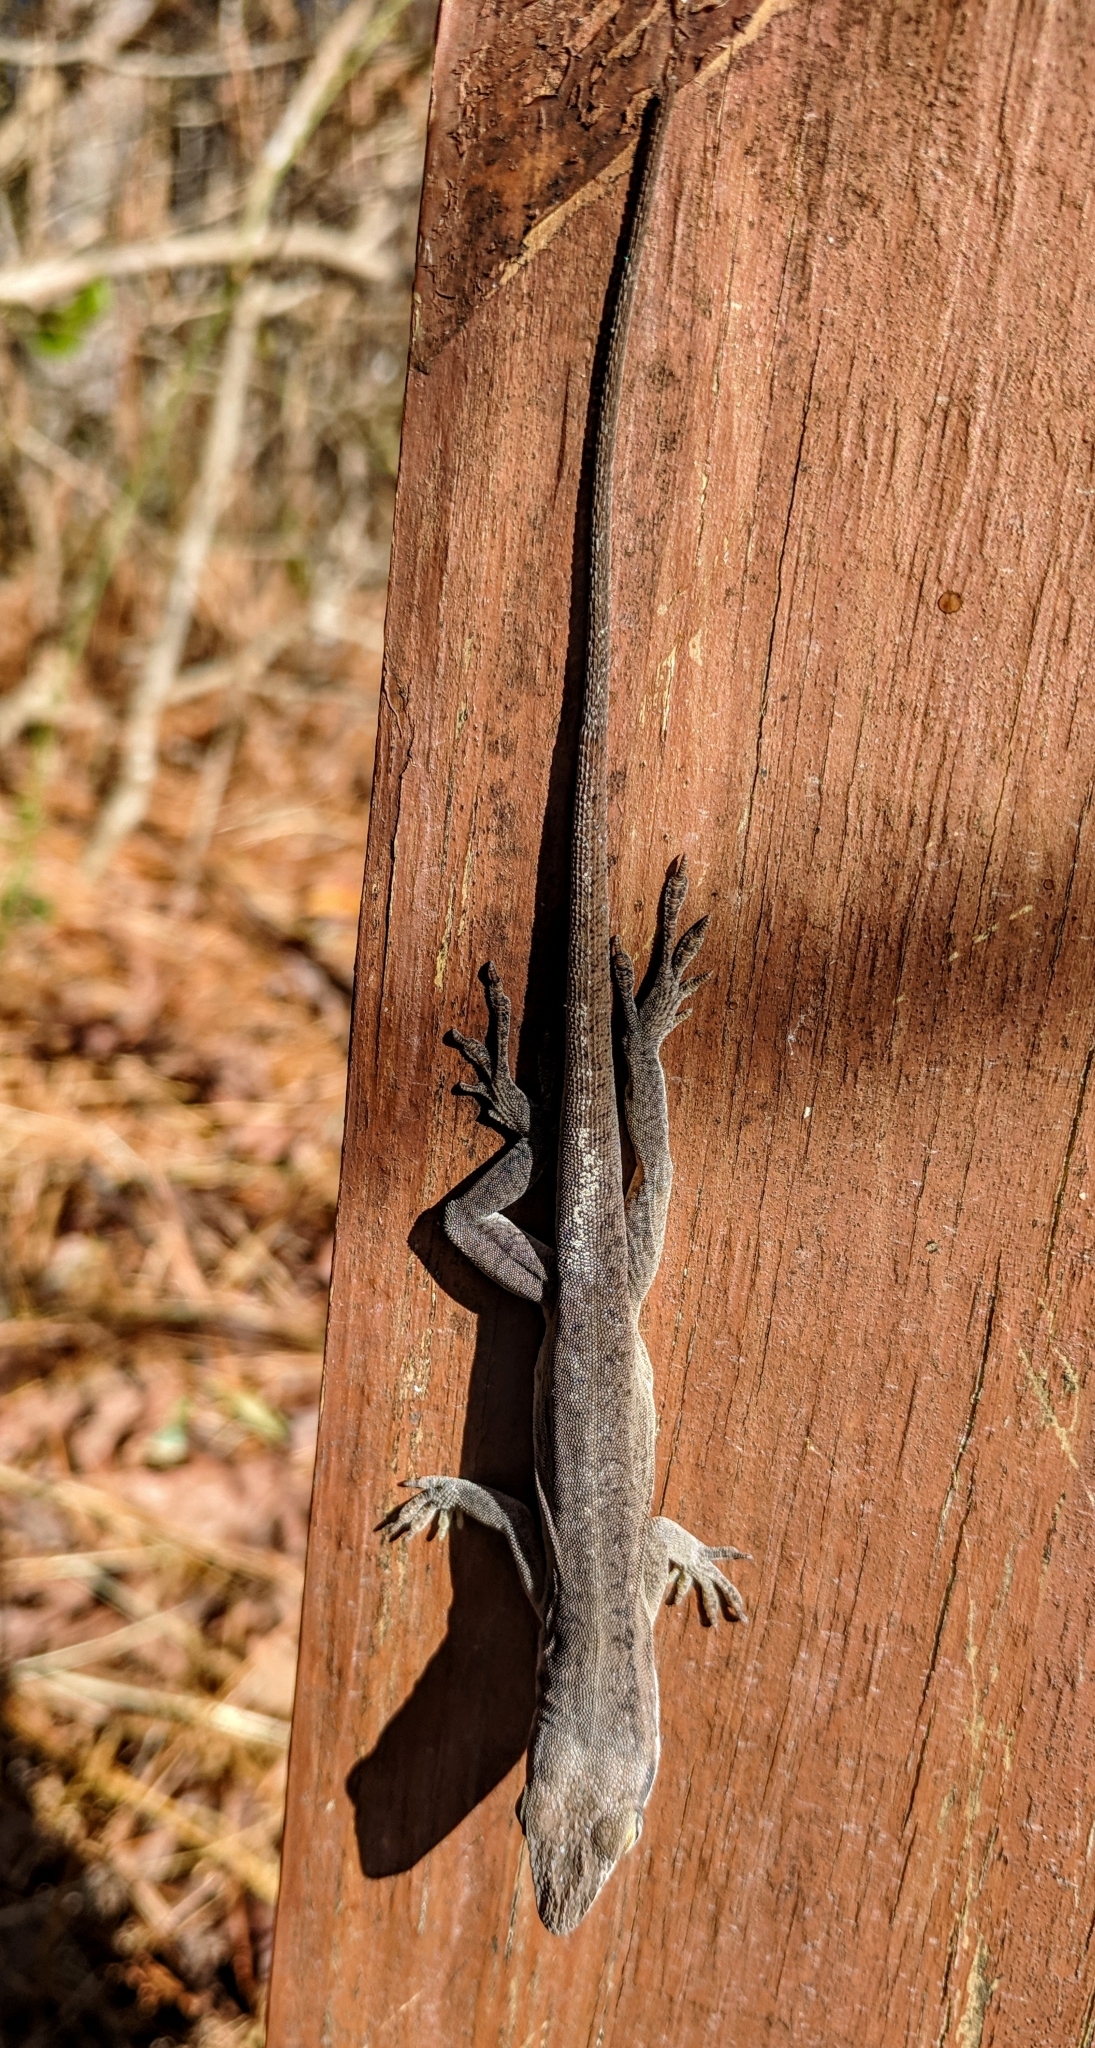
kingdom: Animalia
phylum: Chordata
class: Squamata
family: Dactyloidae
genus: Anolis
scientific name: Anolis carolinensis
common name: Green anole
